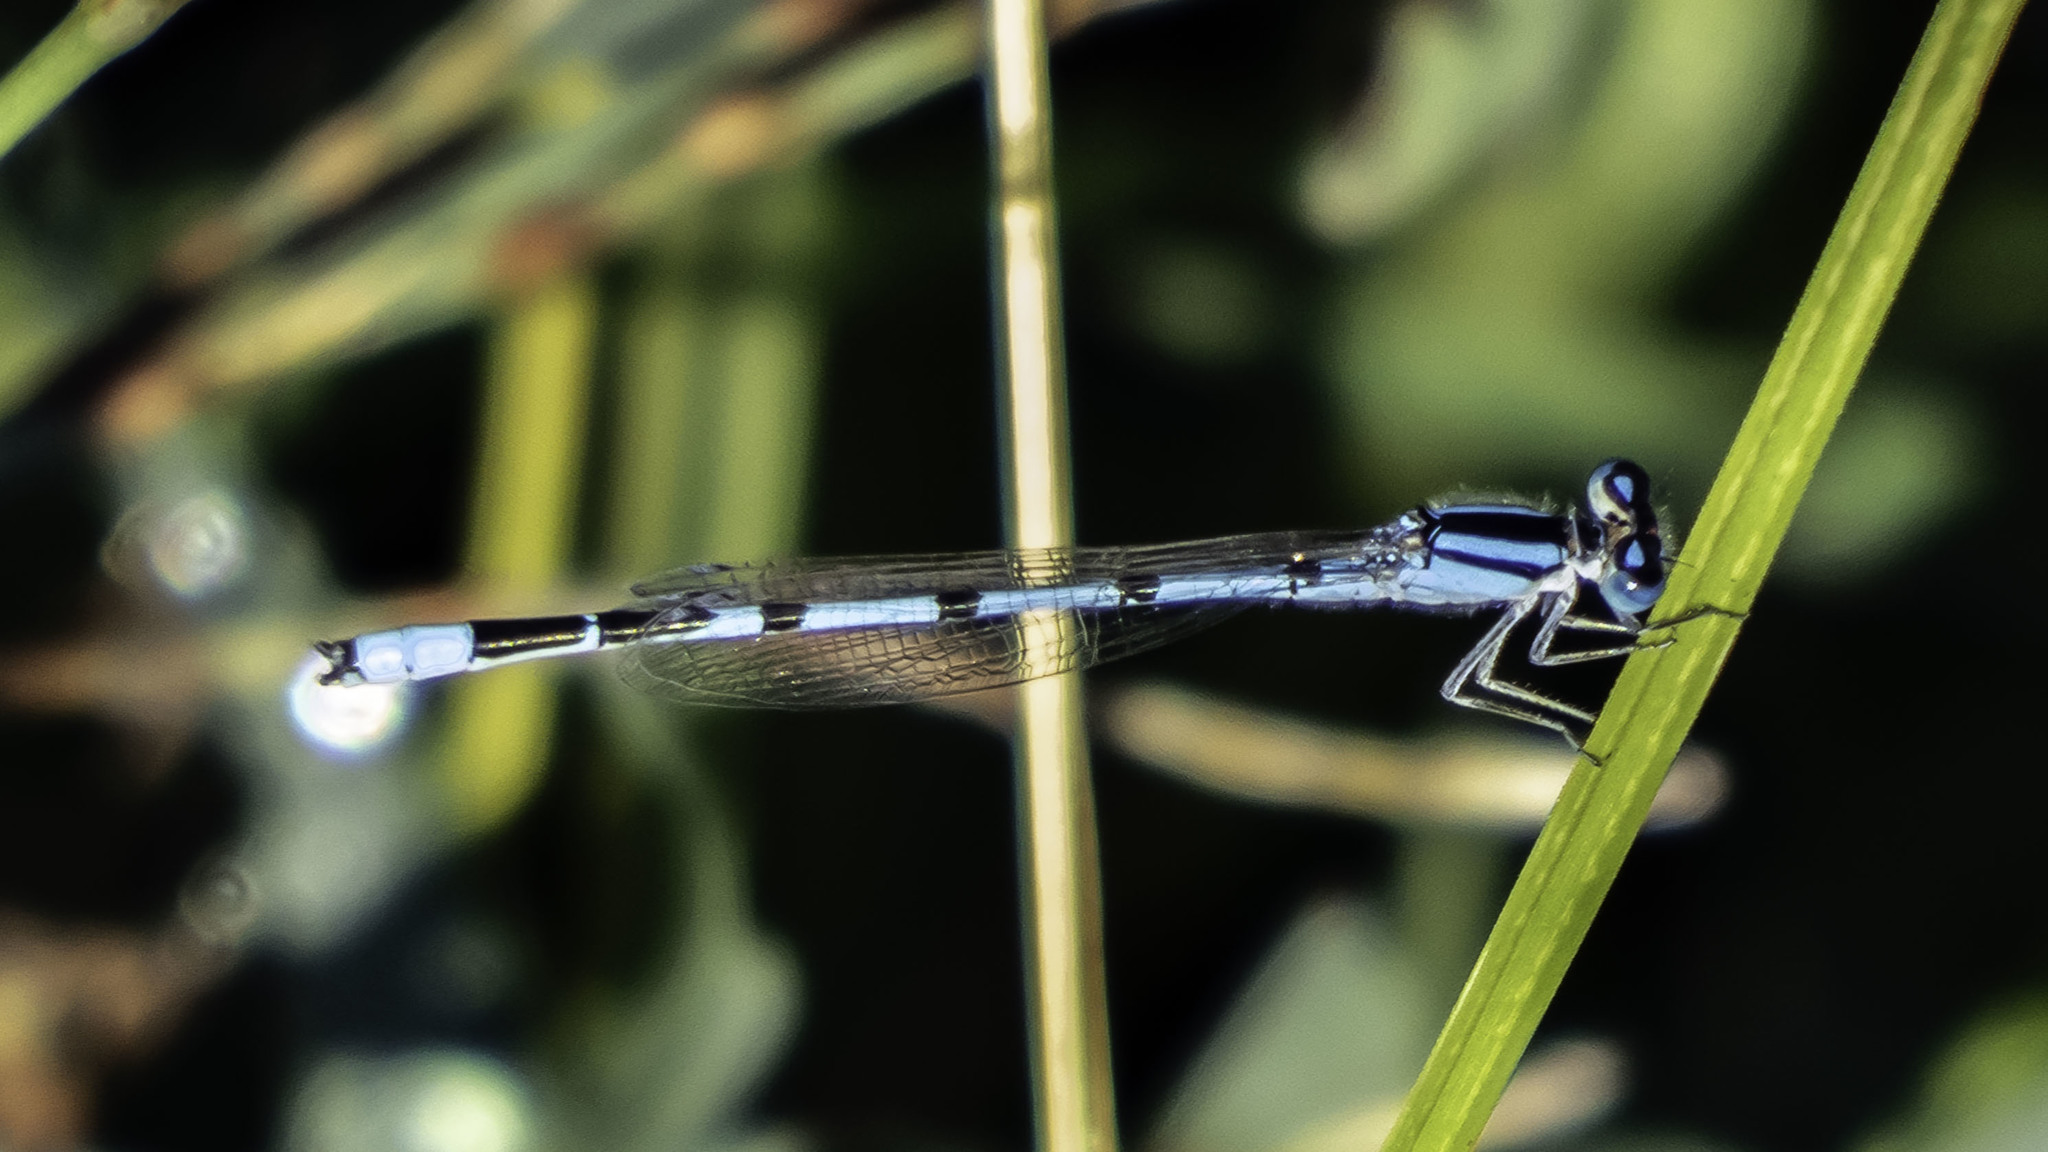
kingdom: Animalia
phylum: Arthropoda
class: Insecta
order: Odonata
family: Coenagrionidae
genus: Enallagma
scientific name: Enallagma civile
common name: Damselfly
